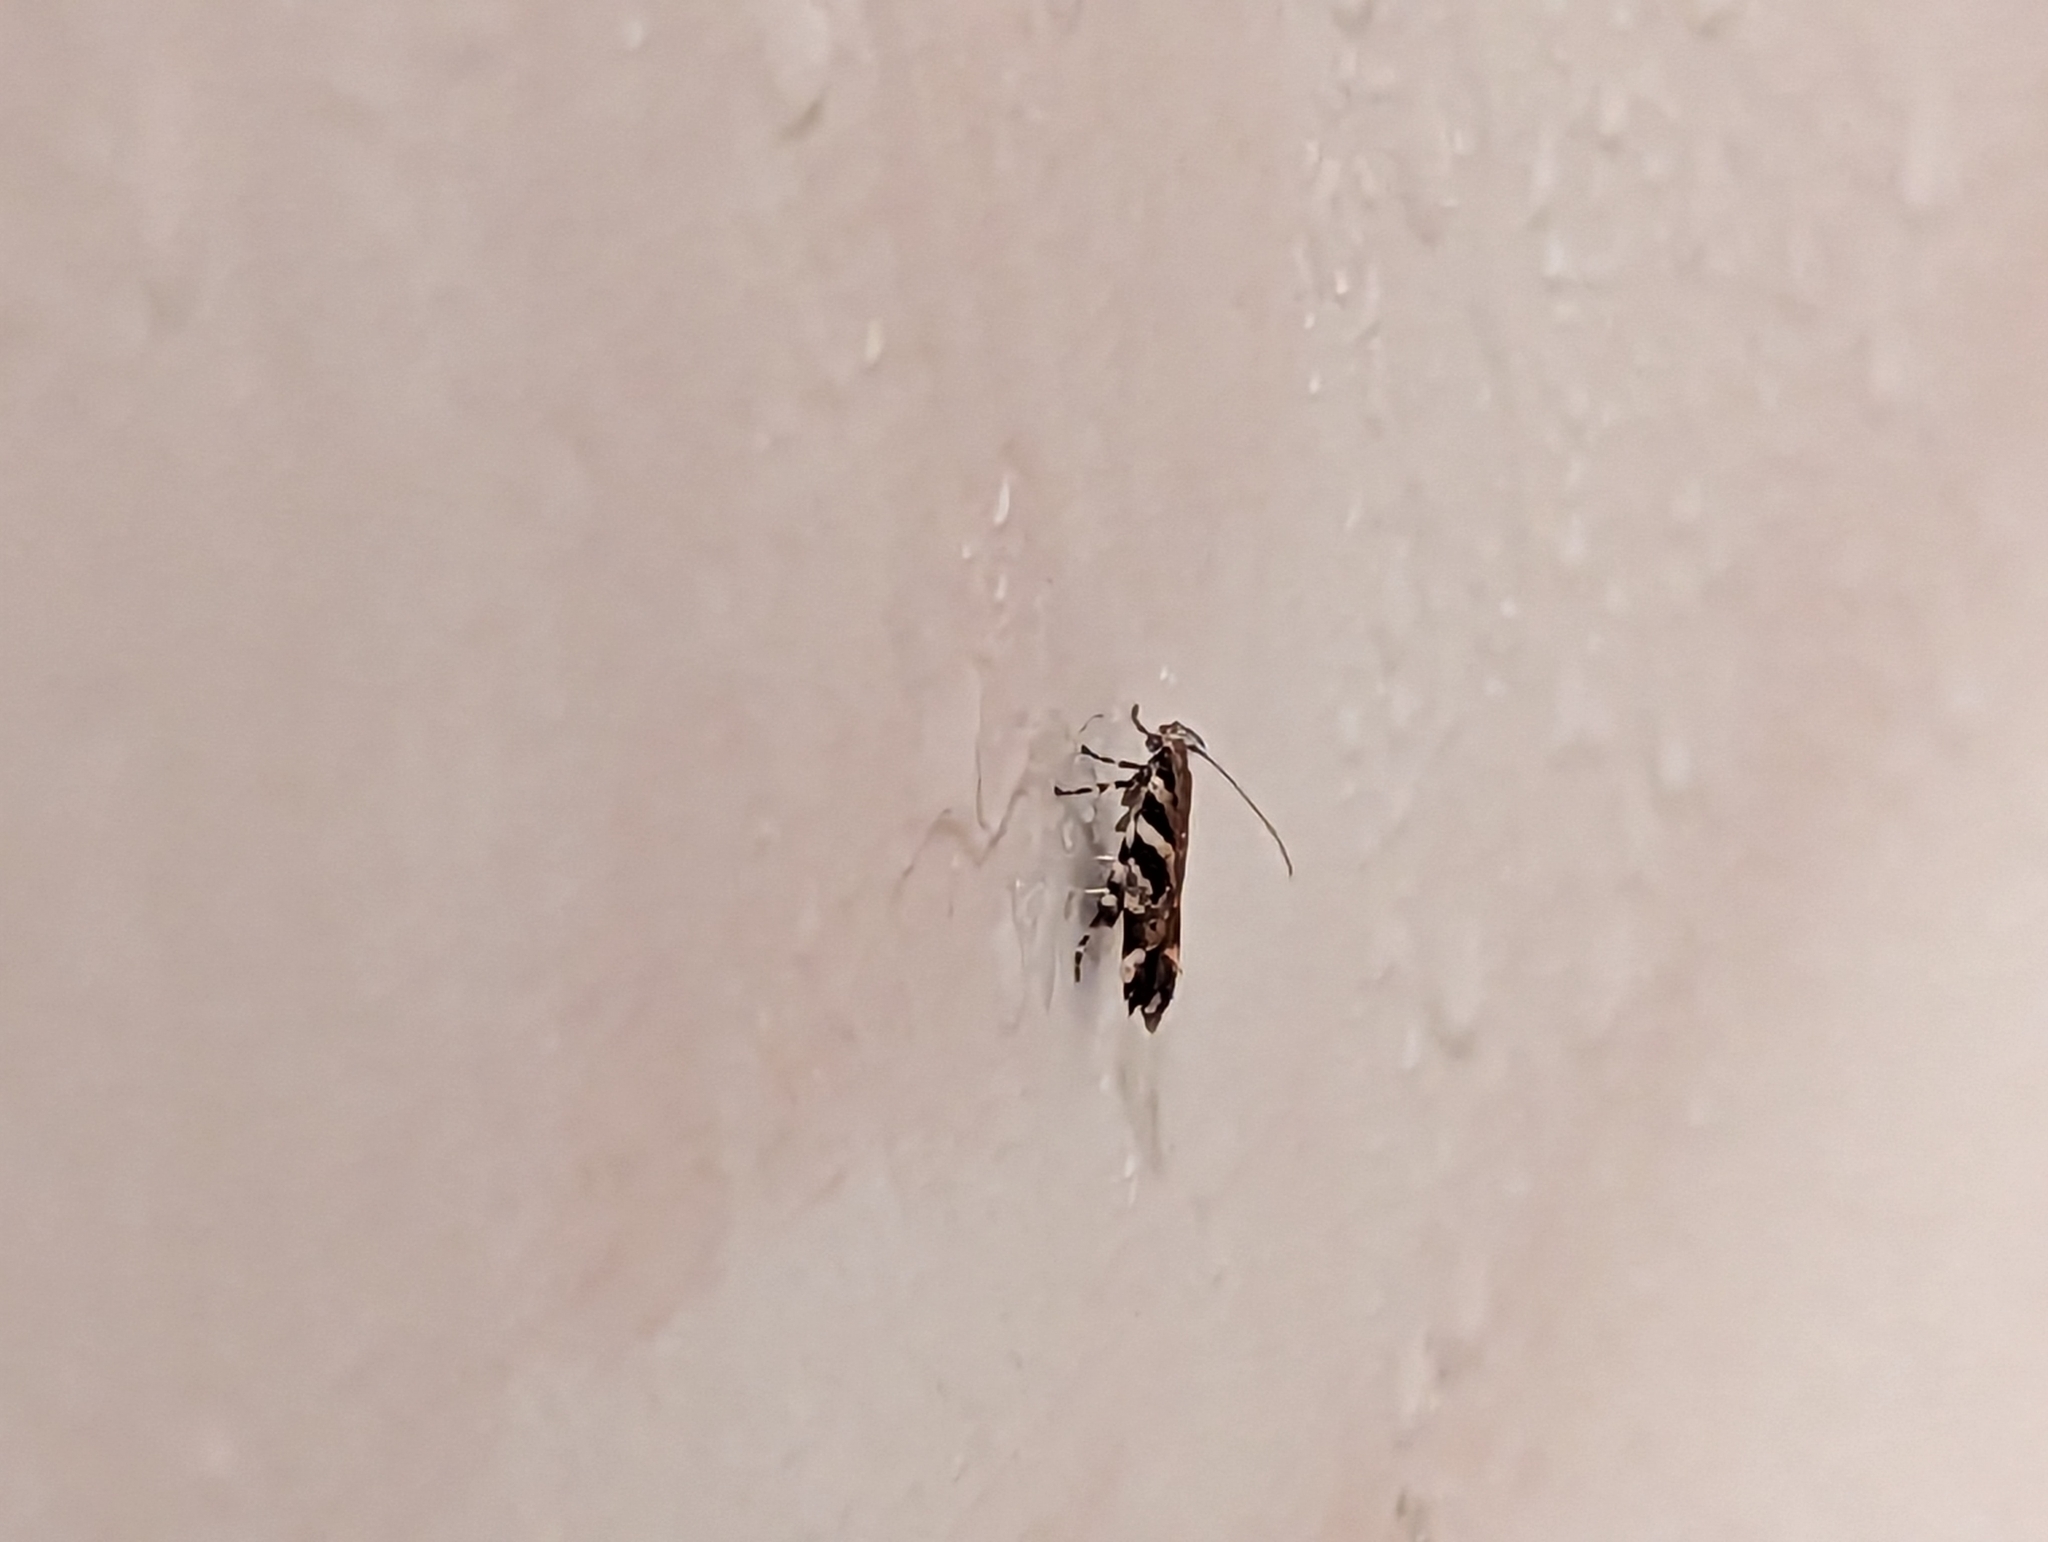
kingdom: Animalia
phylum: Arthropoda
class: Insecta
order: Lepidoptera
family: Gelechiidae
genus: Aristotelia
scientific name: Aristotelia elegantella
